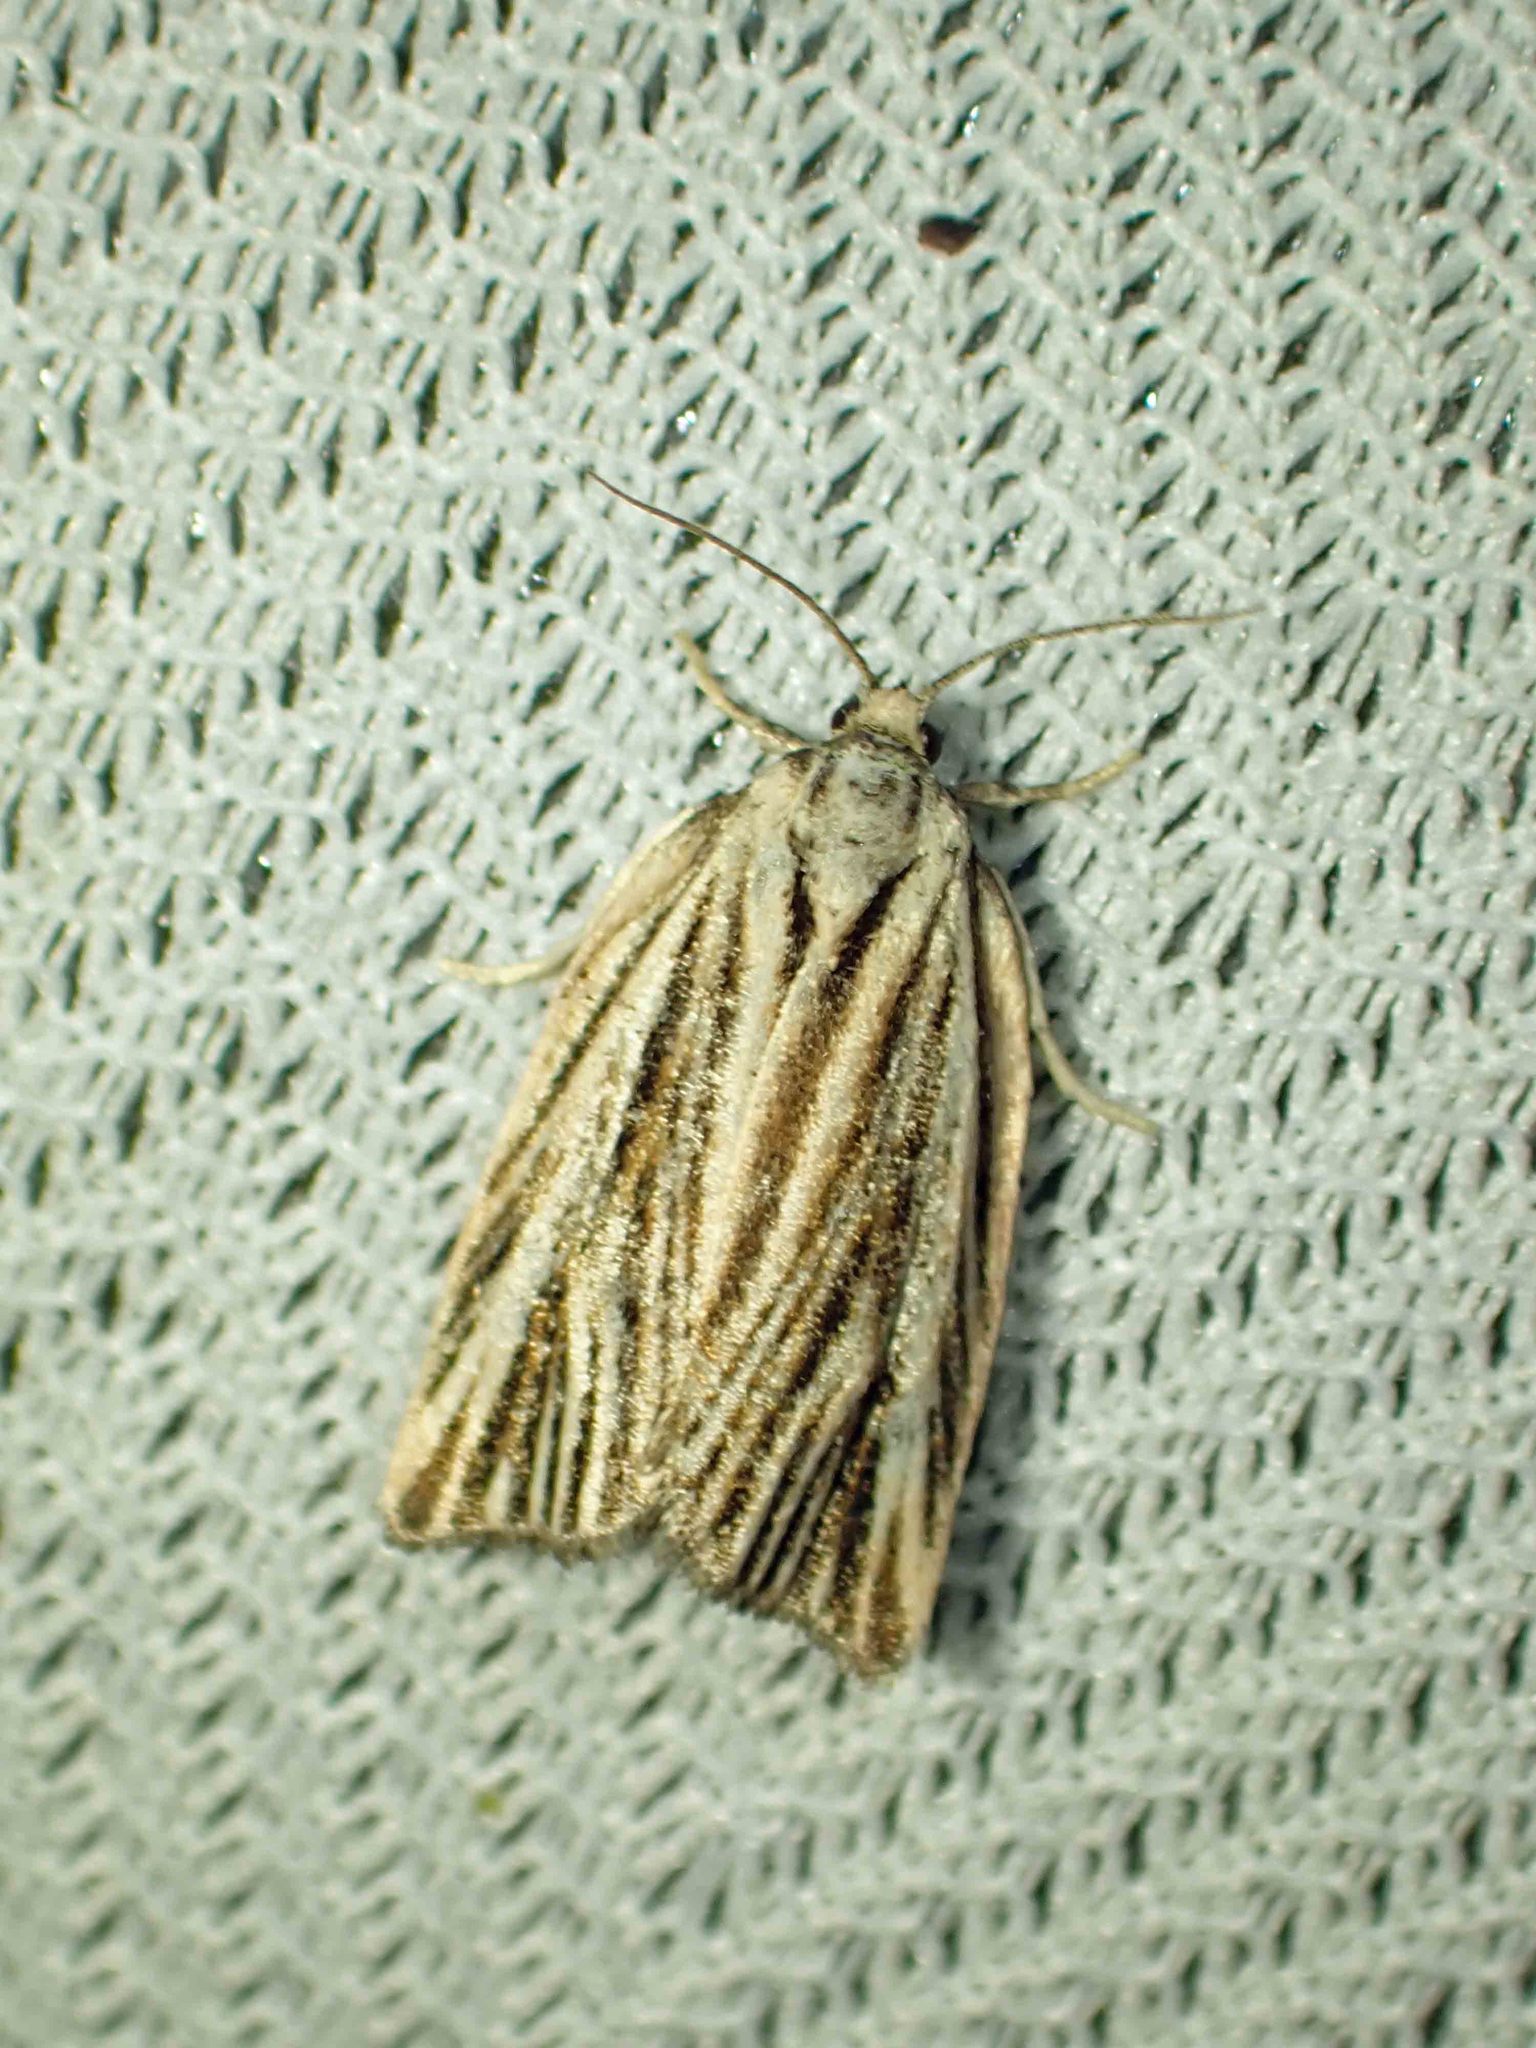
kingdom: Animalia
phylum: Arthropoda
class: Insecta
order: Lepidoptera
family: Tortricidae
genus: Archips
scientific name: Archips strianus
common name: Striated tortrix moth
